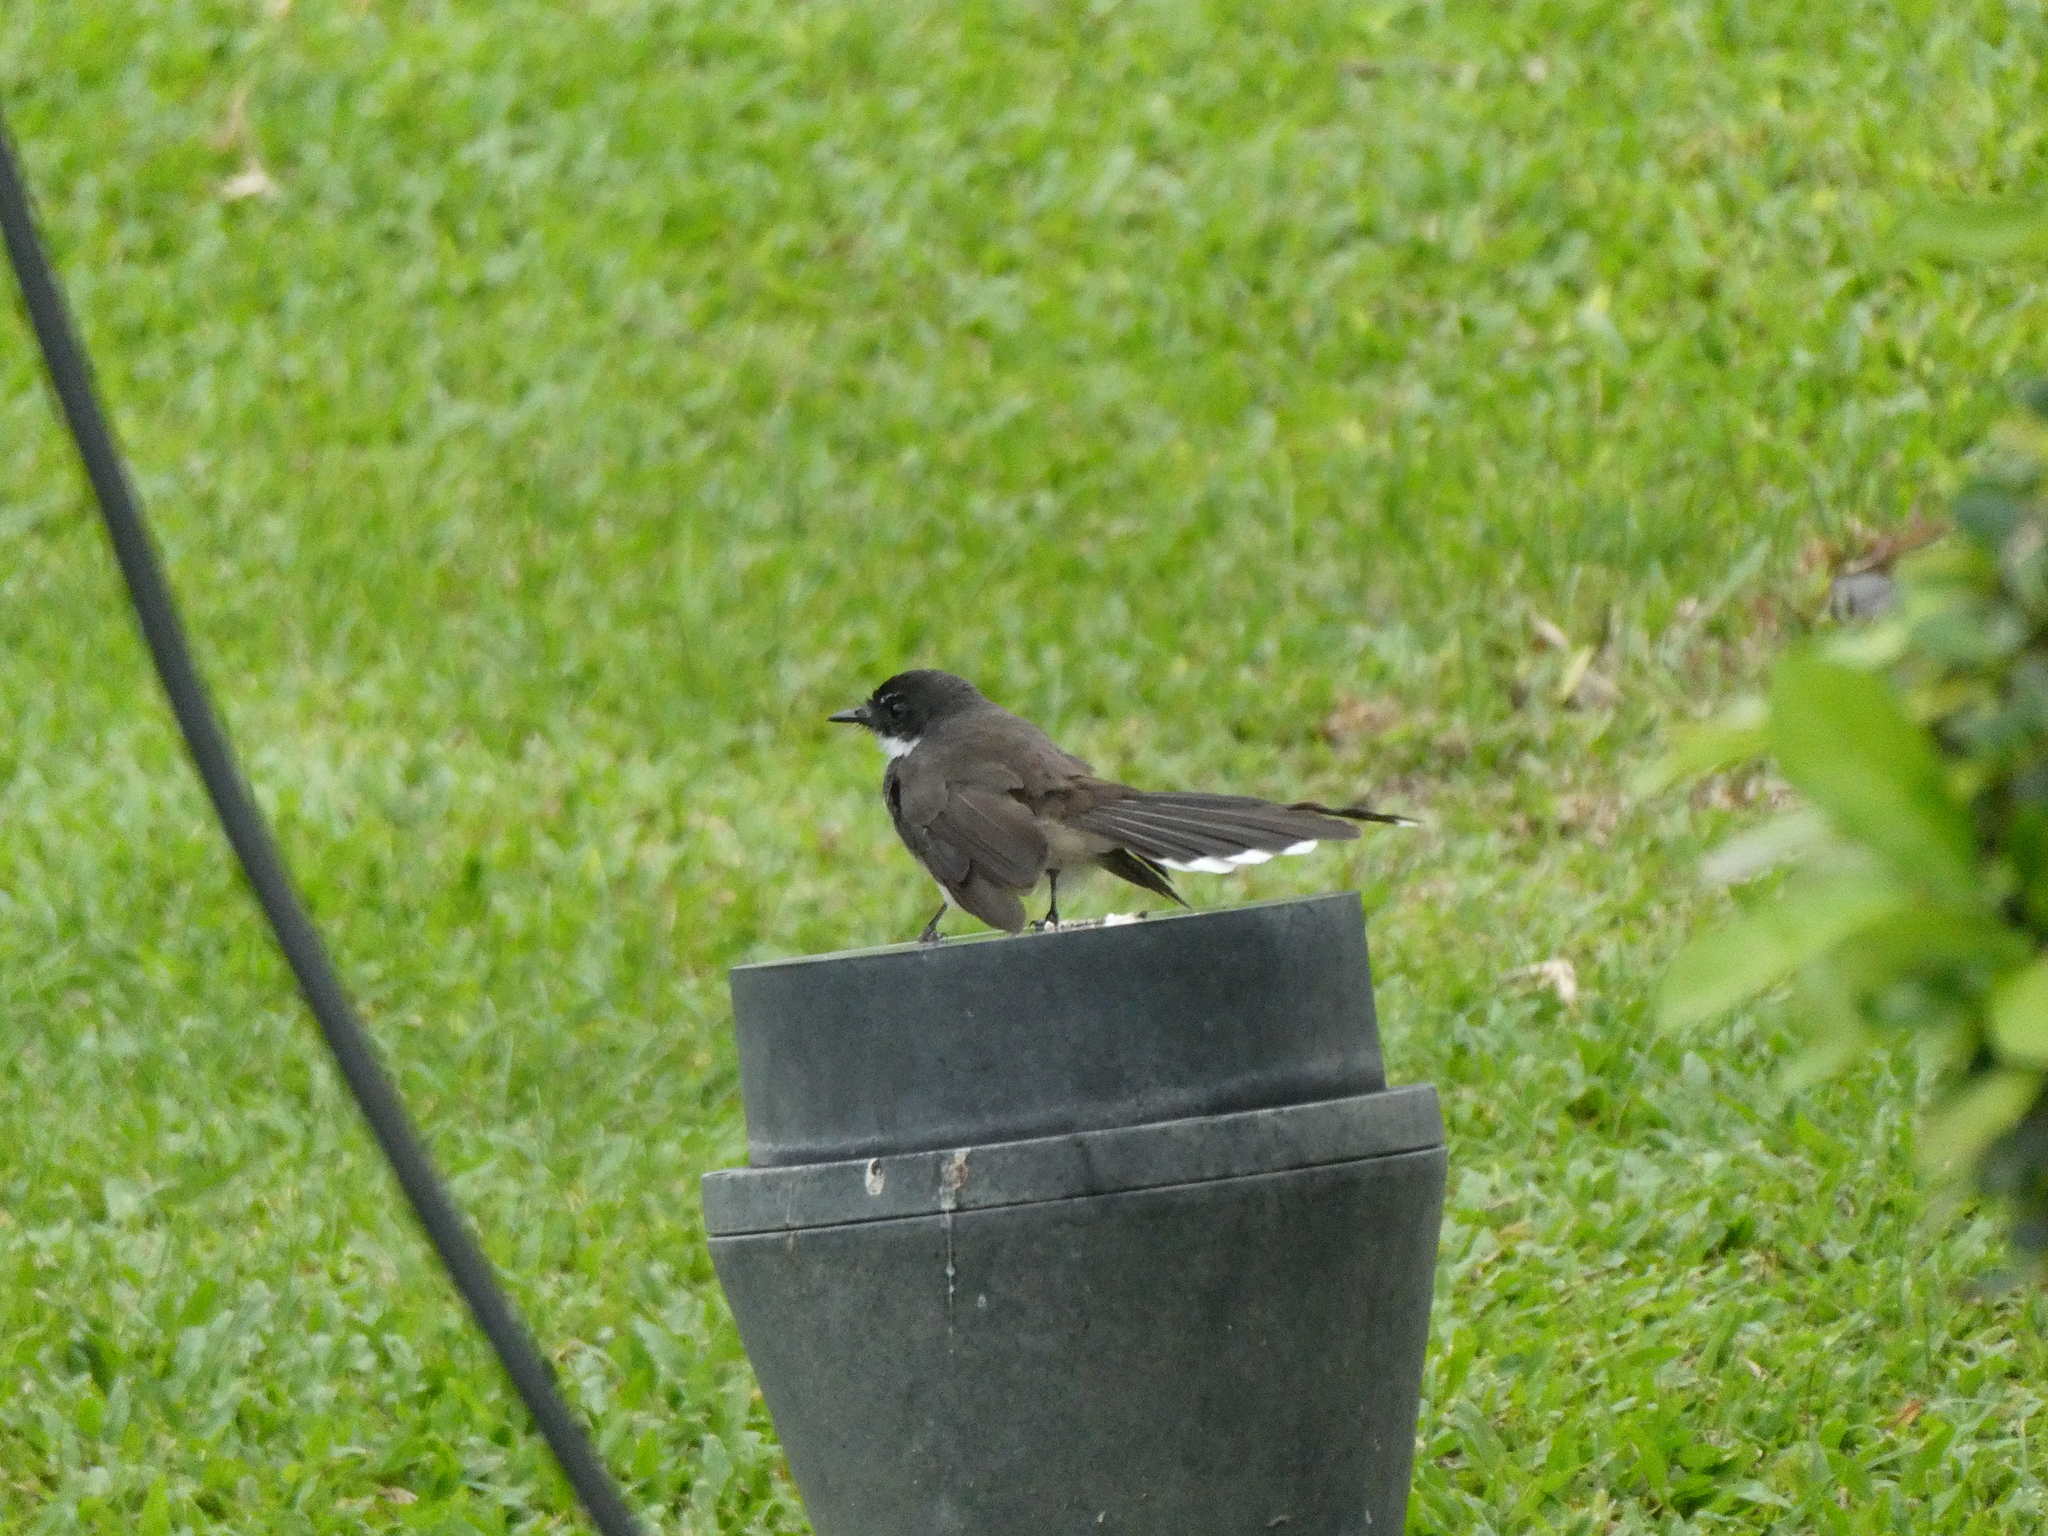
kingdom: Animalia
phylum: Chordata
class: Aves
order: Passeriformes
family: Rhipiduridae
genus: Rhipidura
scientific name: Rhipidura javanica
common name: Pied fantail
